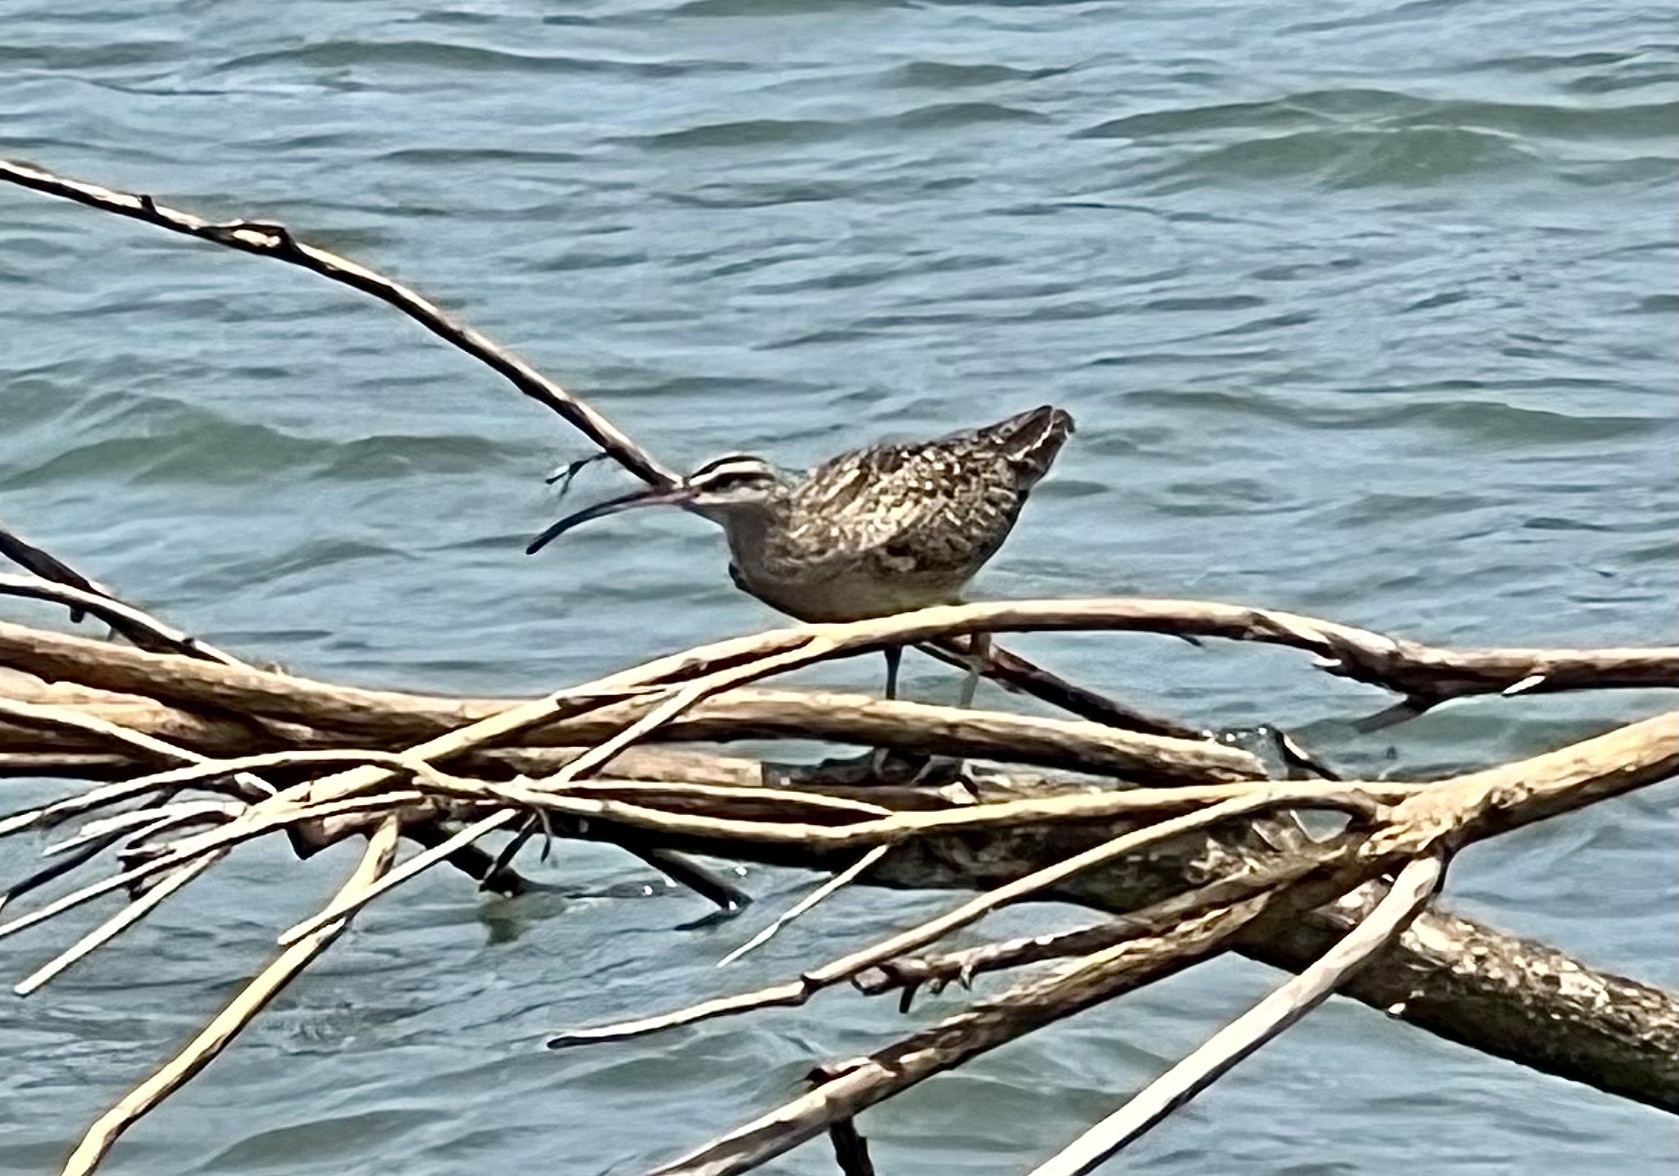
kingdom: Animalia
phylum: Chordata
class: Aves
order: Charadriiformes
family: Scolopacidae
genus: Numenius
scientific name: Numenius phaeopus
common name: Whimbrel
